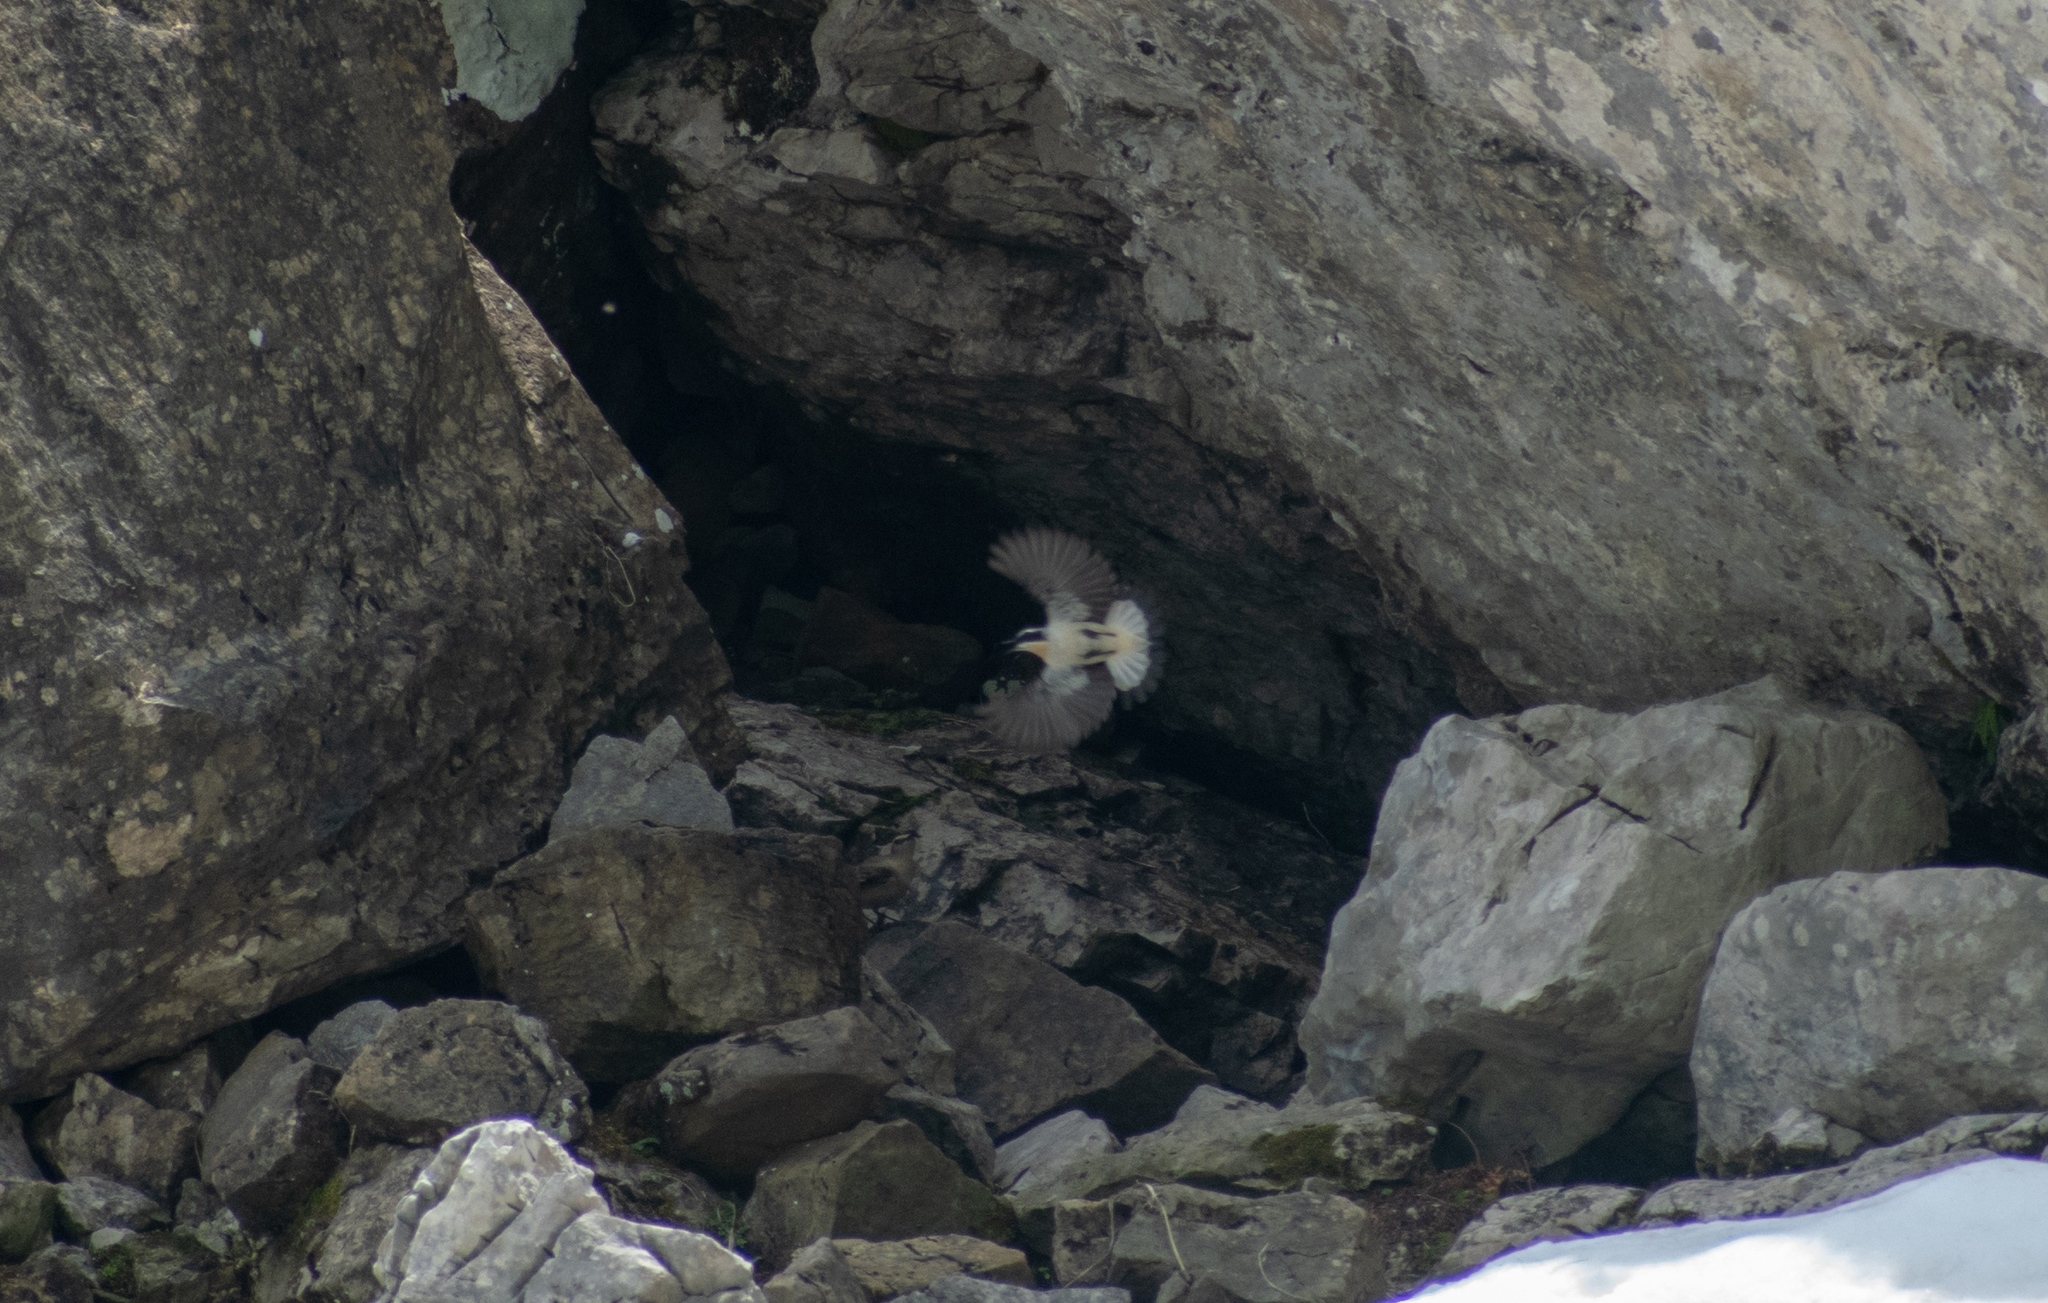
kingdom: Animalia
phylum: Chordata
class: Aves
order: Passeriformes
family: Muscicapidae
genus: Oenanthe
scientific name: Oenanthe oenanthe
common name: Northern wheatear
